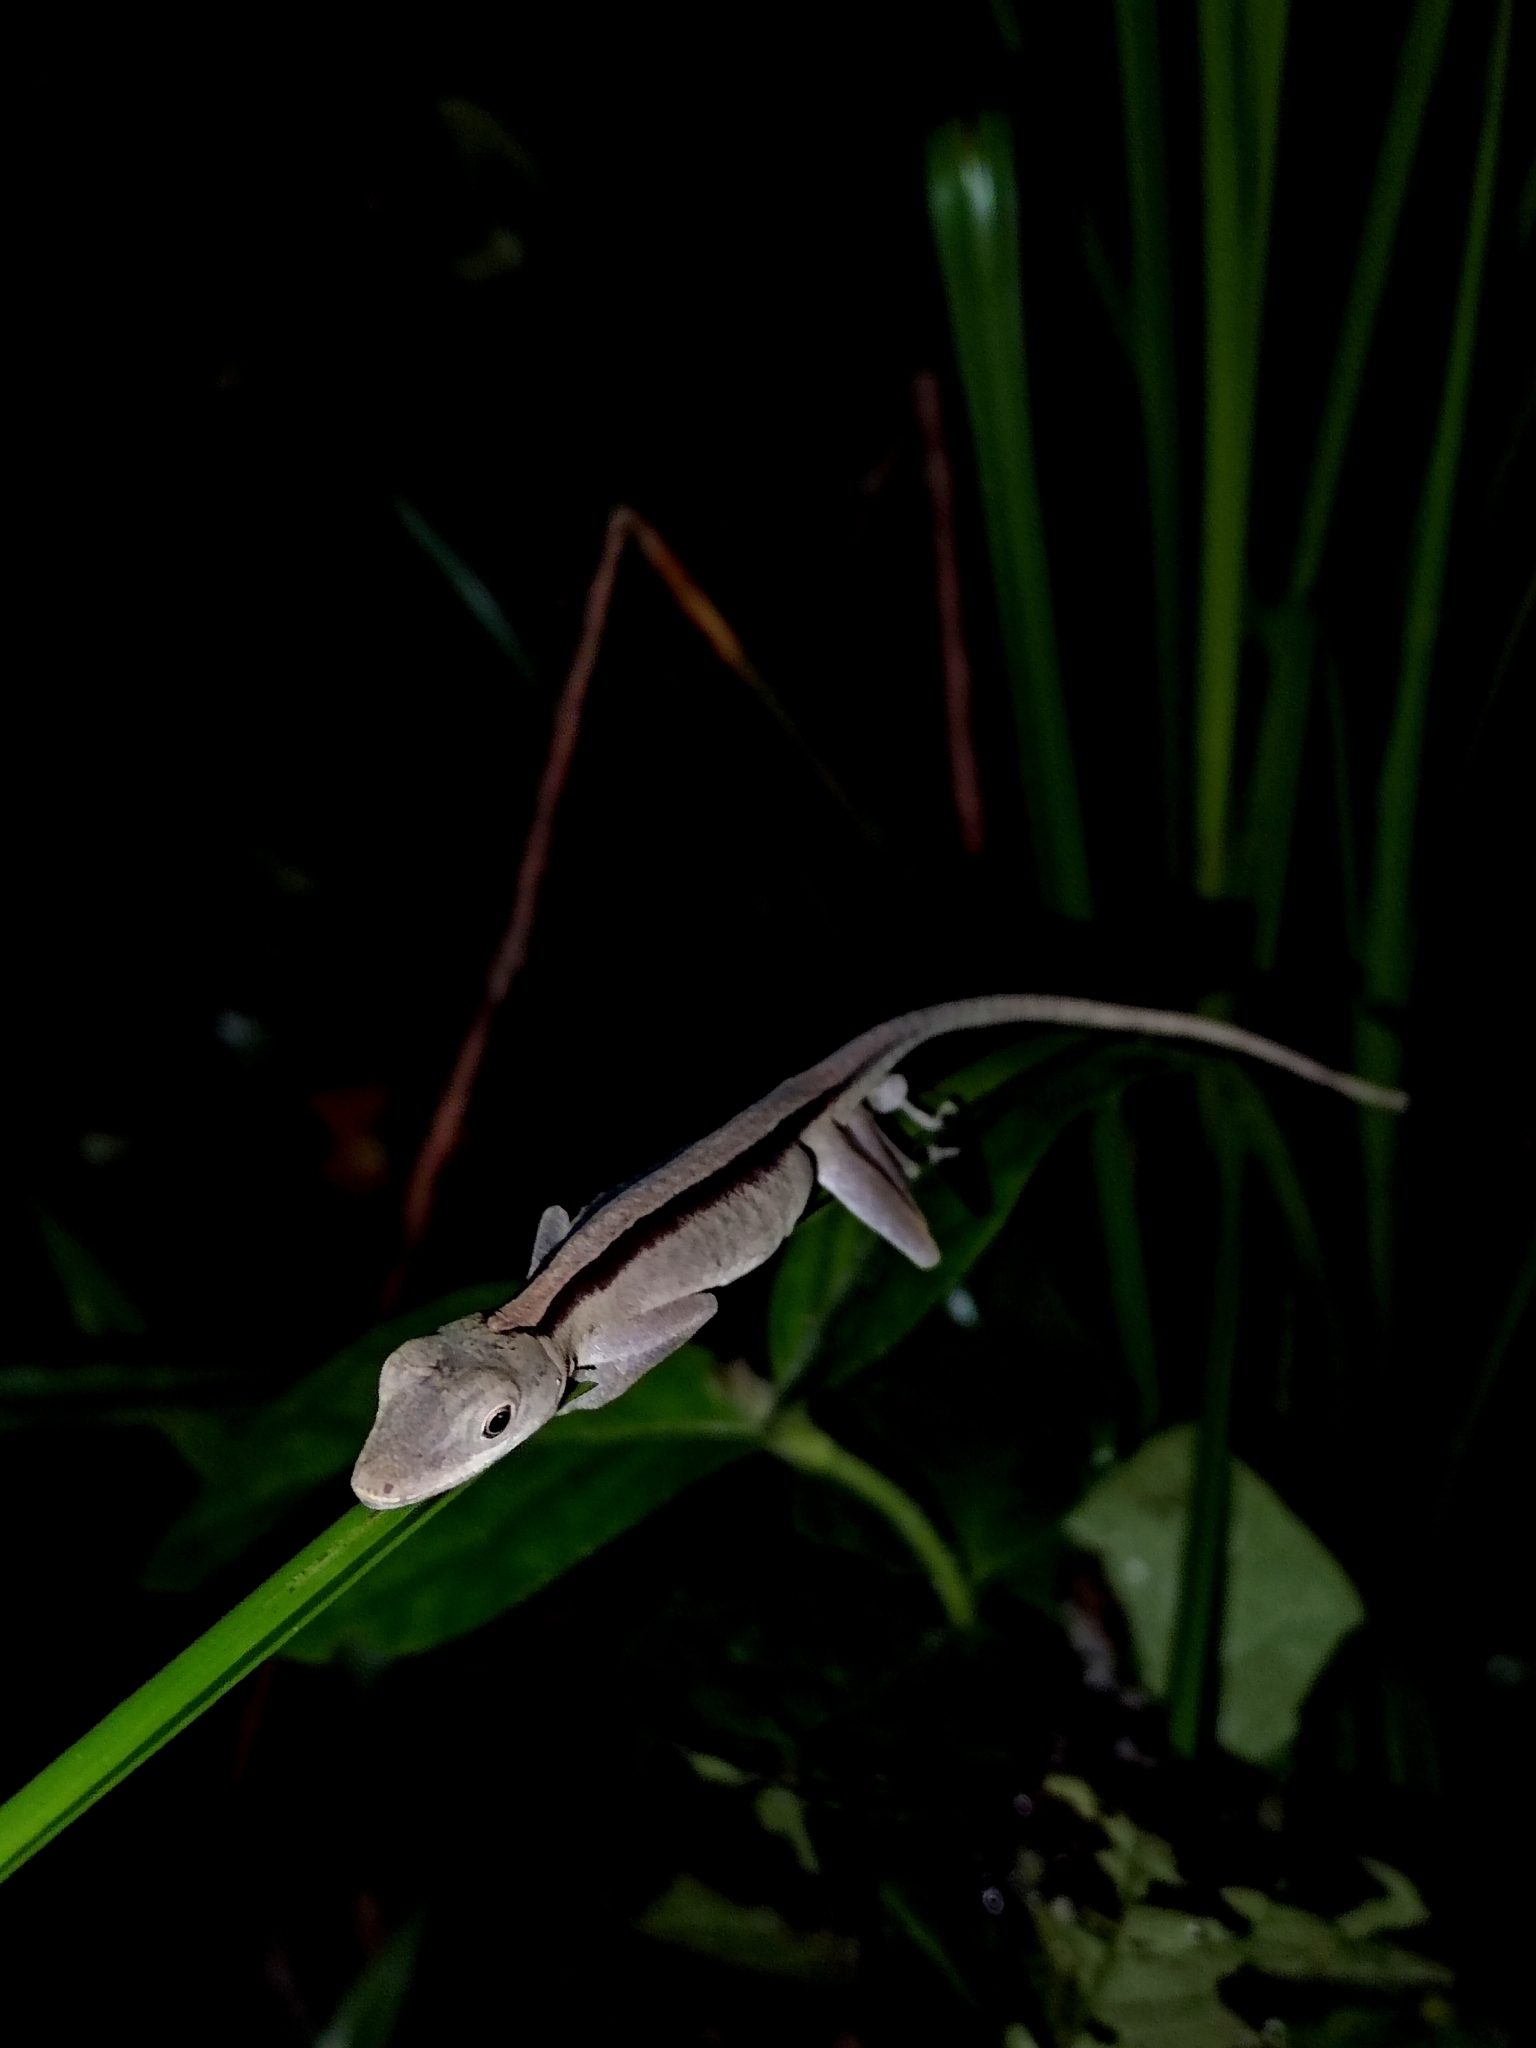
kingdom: Animalia
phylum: Chordata
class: Squamata
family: Dactyloidae
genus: Anolis
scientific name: Anolis fuscoauratus
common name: Brown-eared anole
